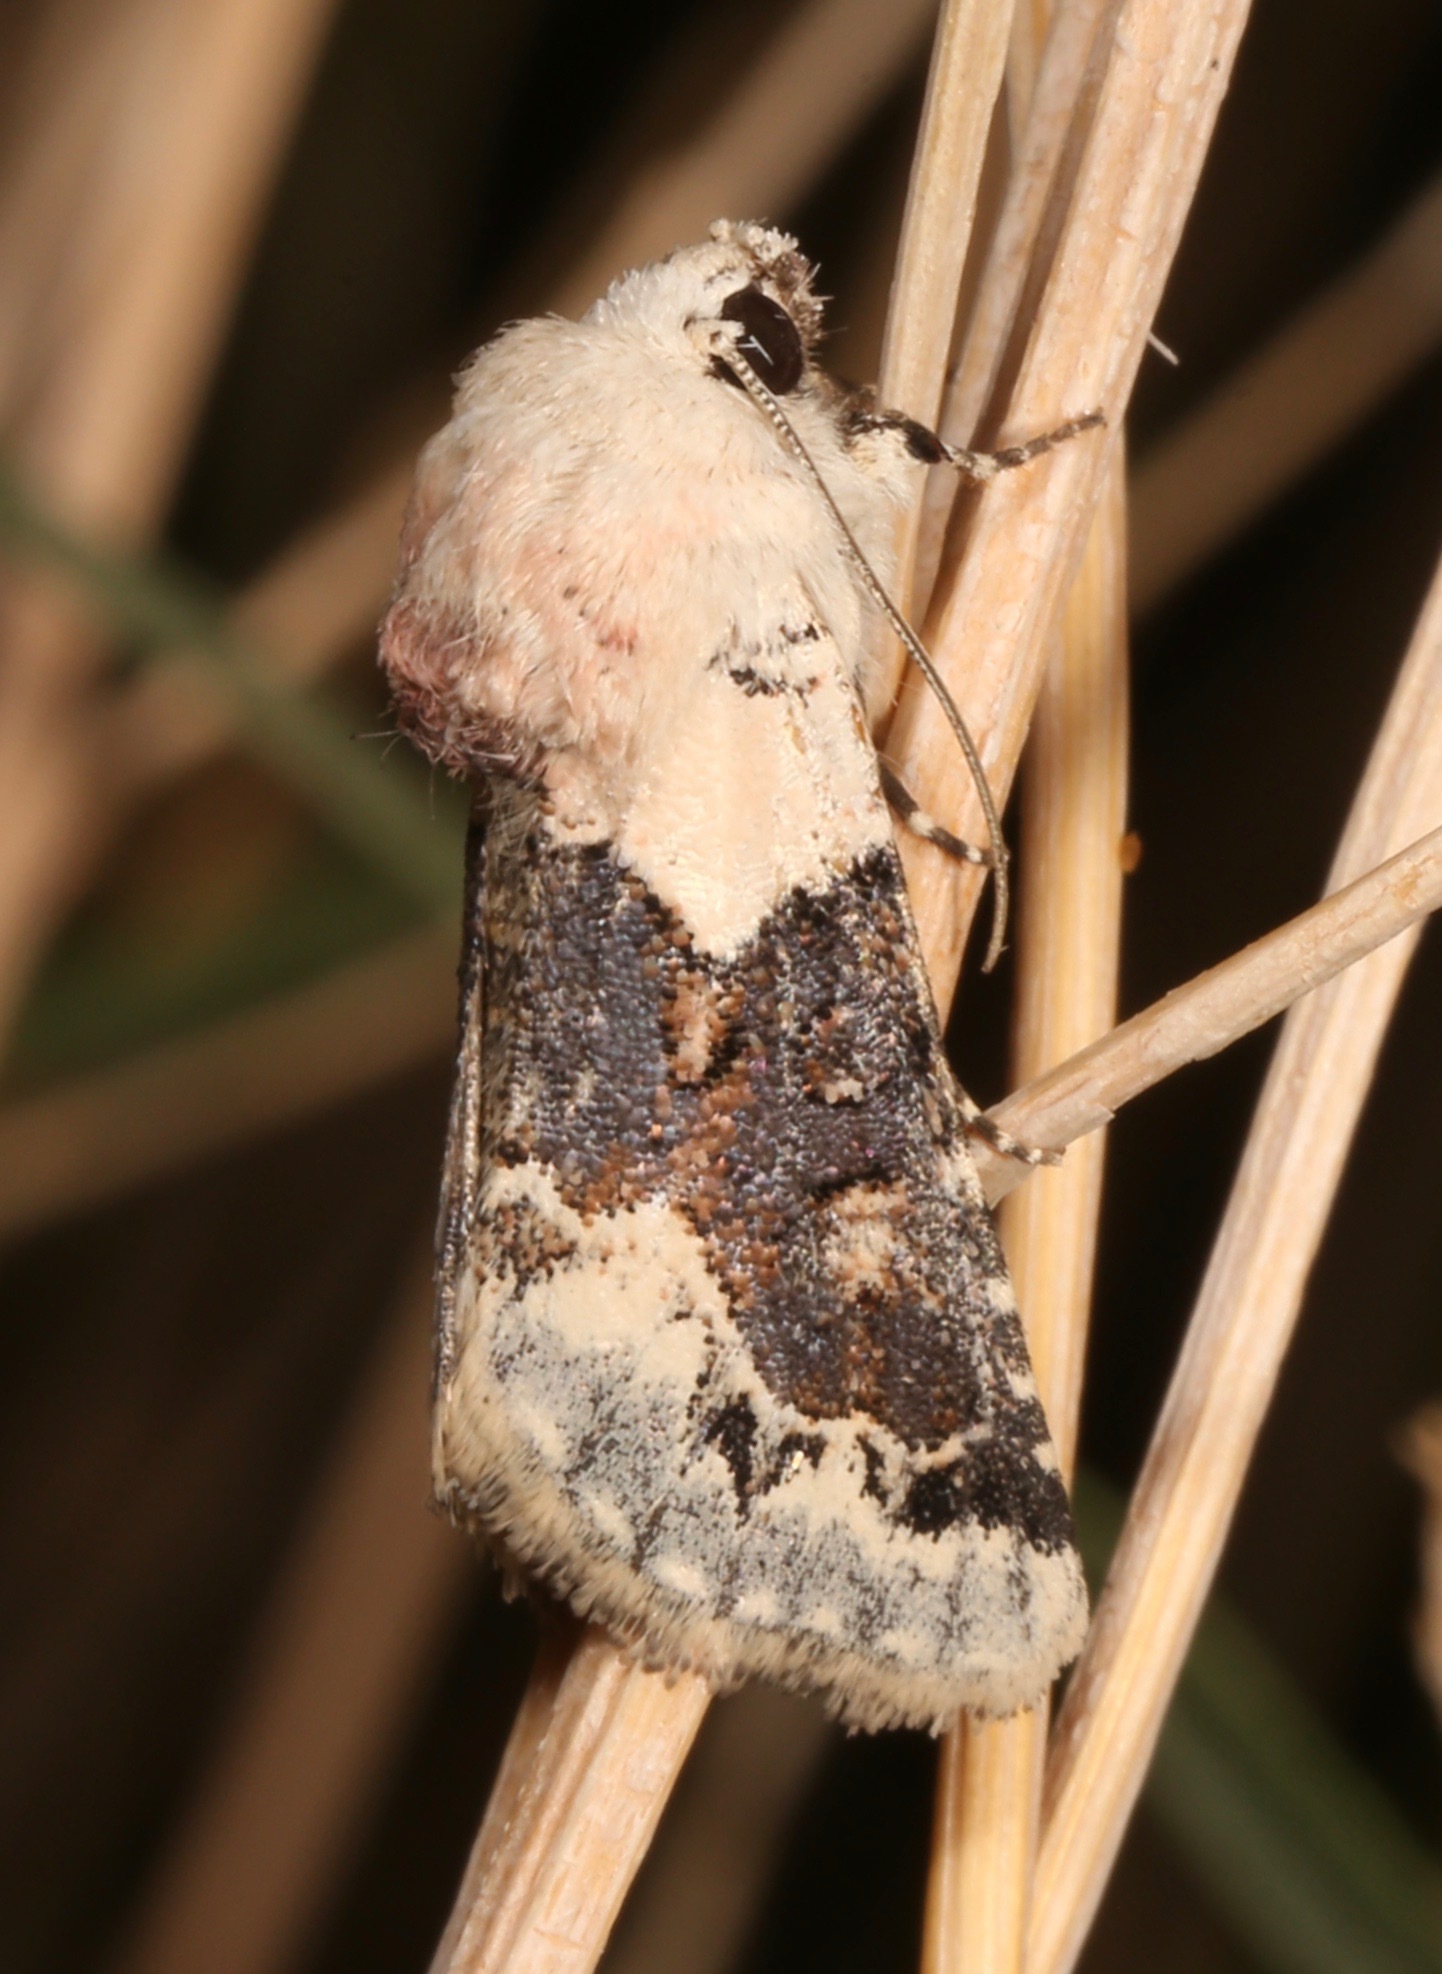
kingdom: Animalia
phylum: Arthropoda
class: Insecta
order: Lepidoptera
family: Noctuidae
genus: Triocnemis
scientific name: Triocnemis saporis
